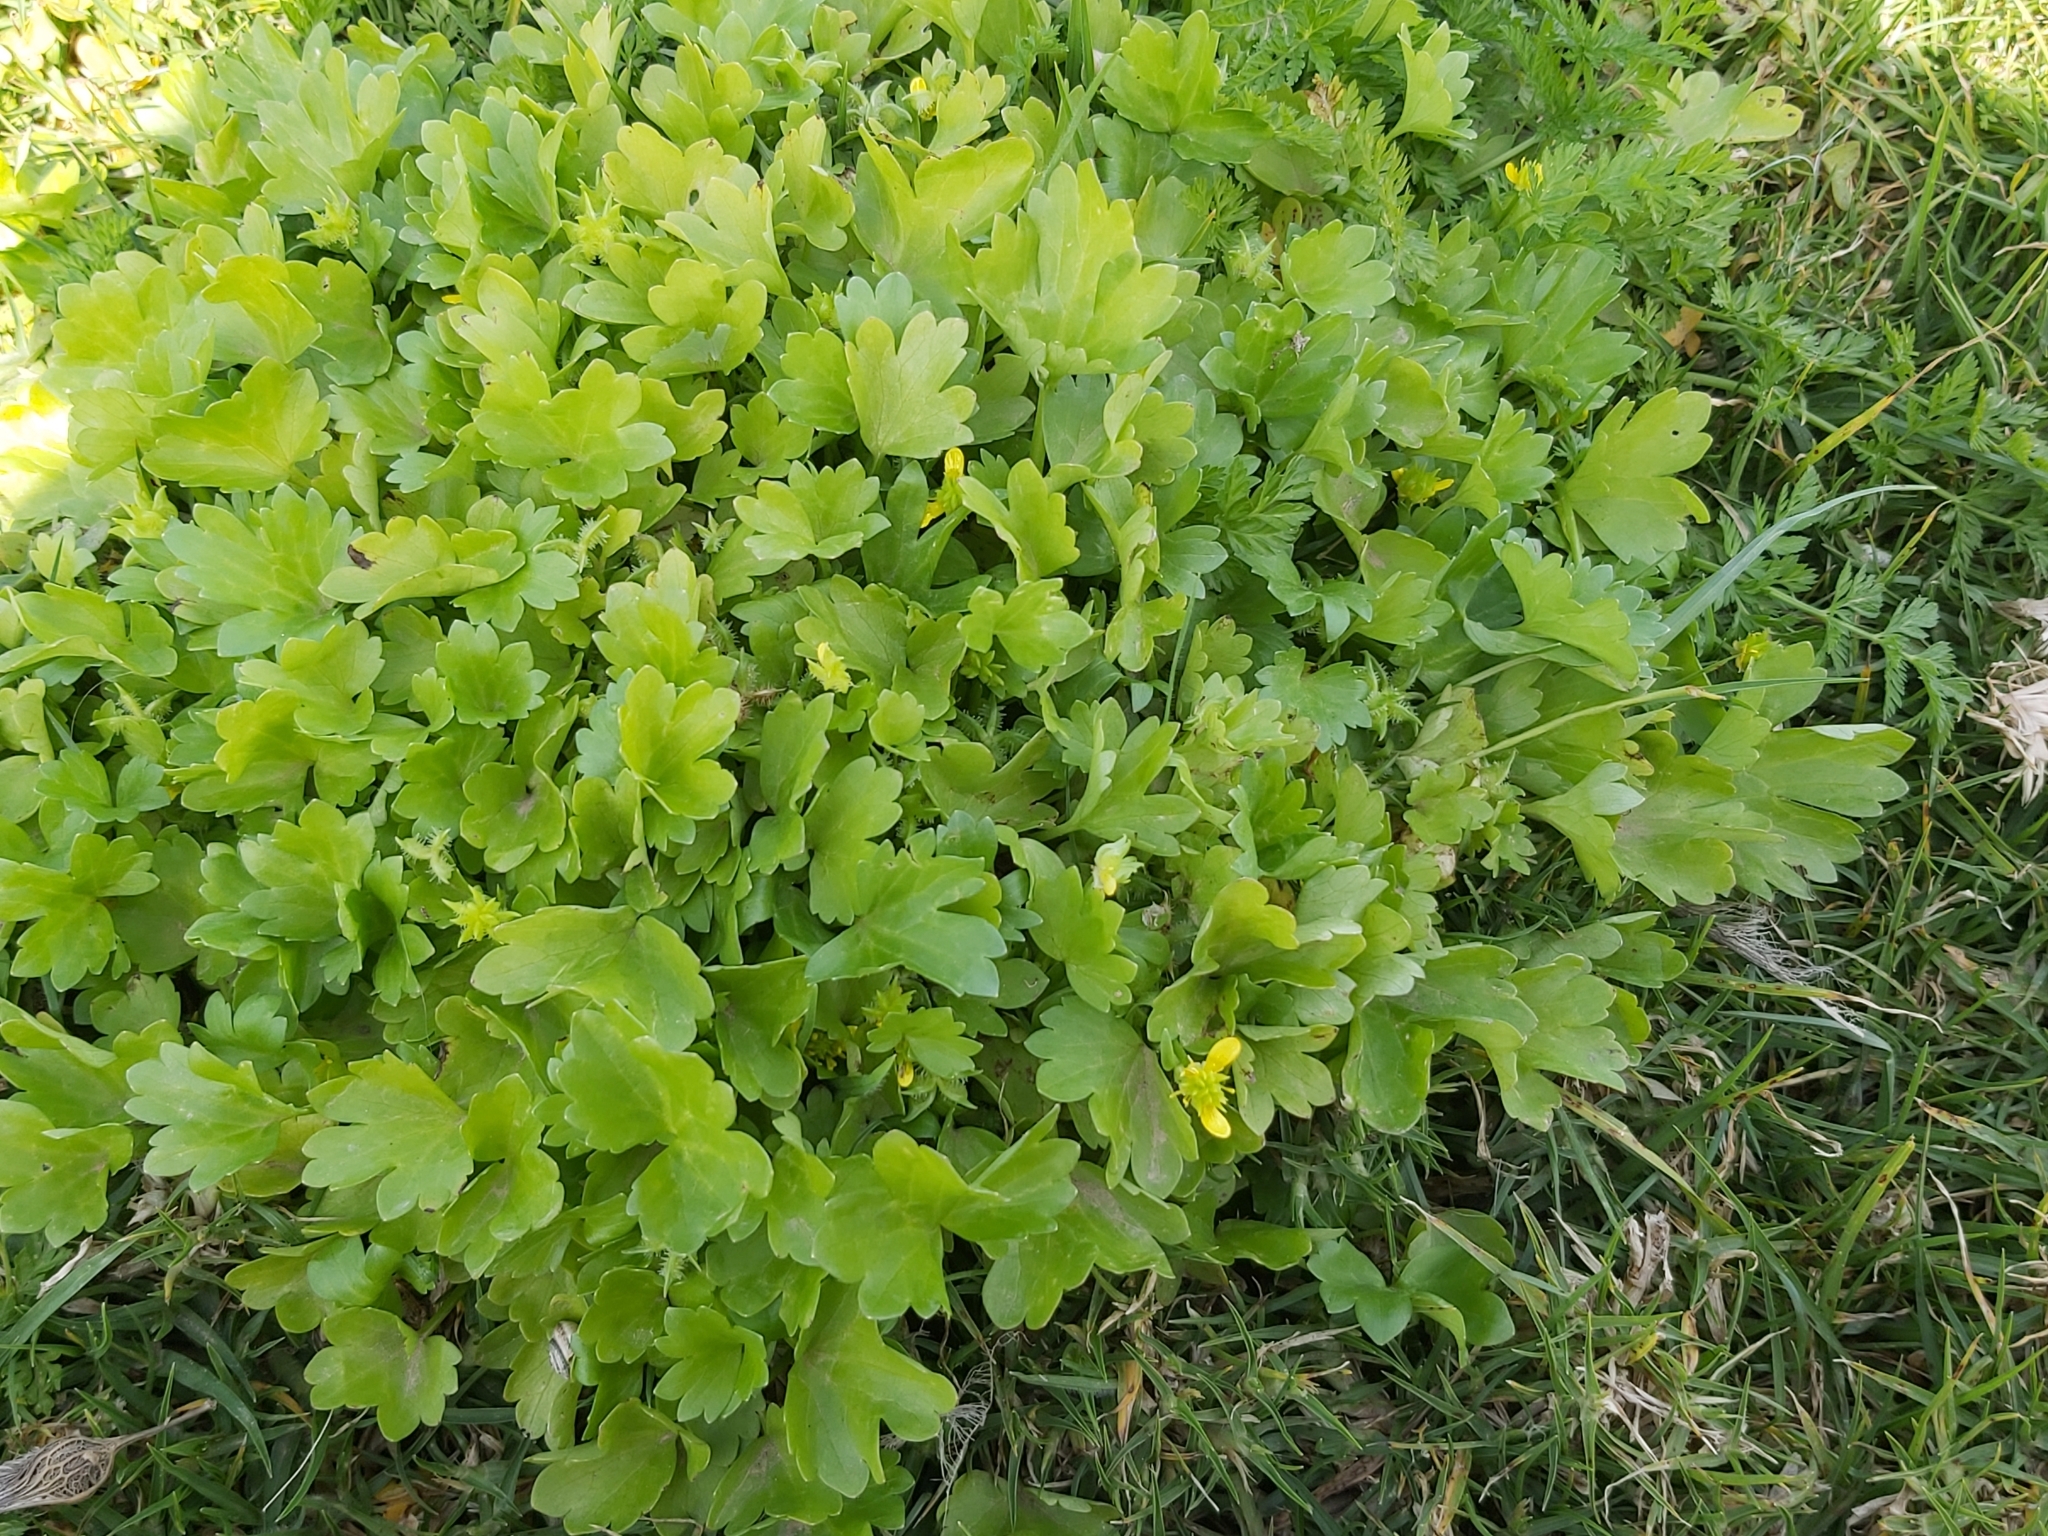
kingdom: Plantae
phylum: Tracheophyta
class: Magnoliopsida
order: Ranunculales
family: Ranunculaceae
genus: Ranunculus
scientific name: Ranunculus muricatus
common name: Rough-fruited buttercup
